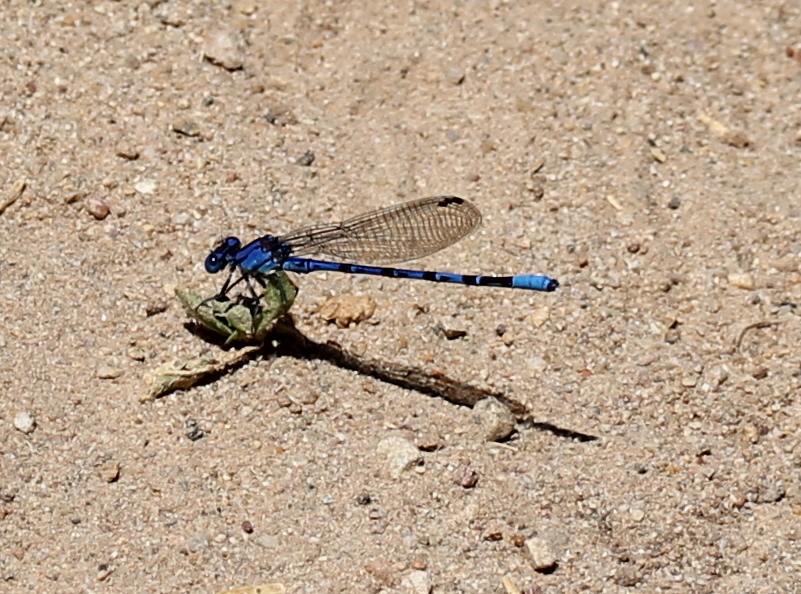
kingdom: Animalia
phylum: Arthropoda
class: Insecta
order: Odonata
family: Coenagrionidae
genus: Argia
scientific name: Argia vivida
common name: Vivid dancer
